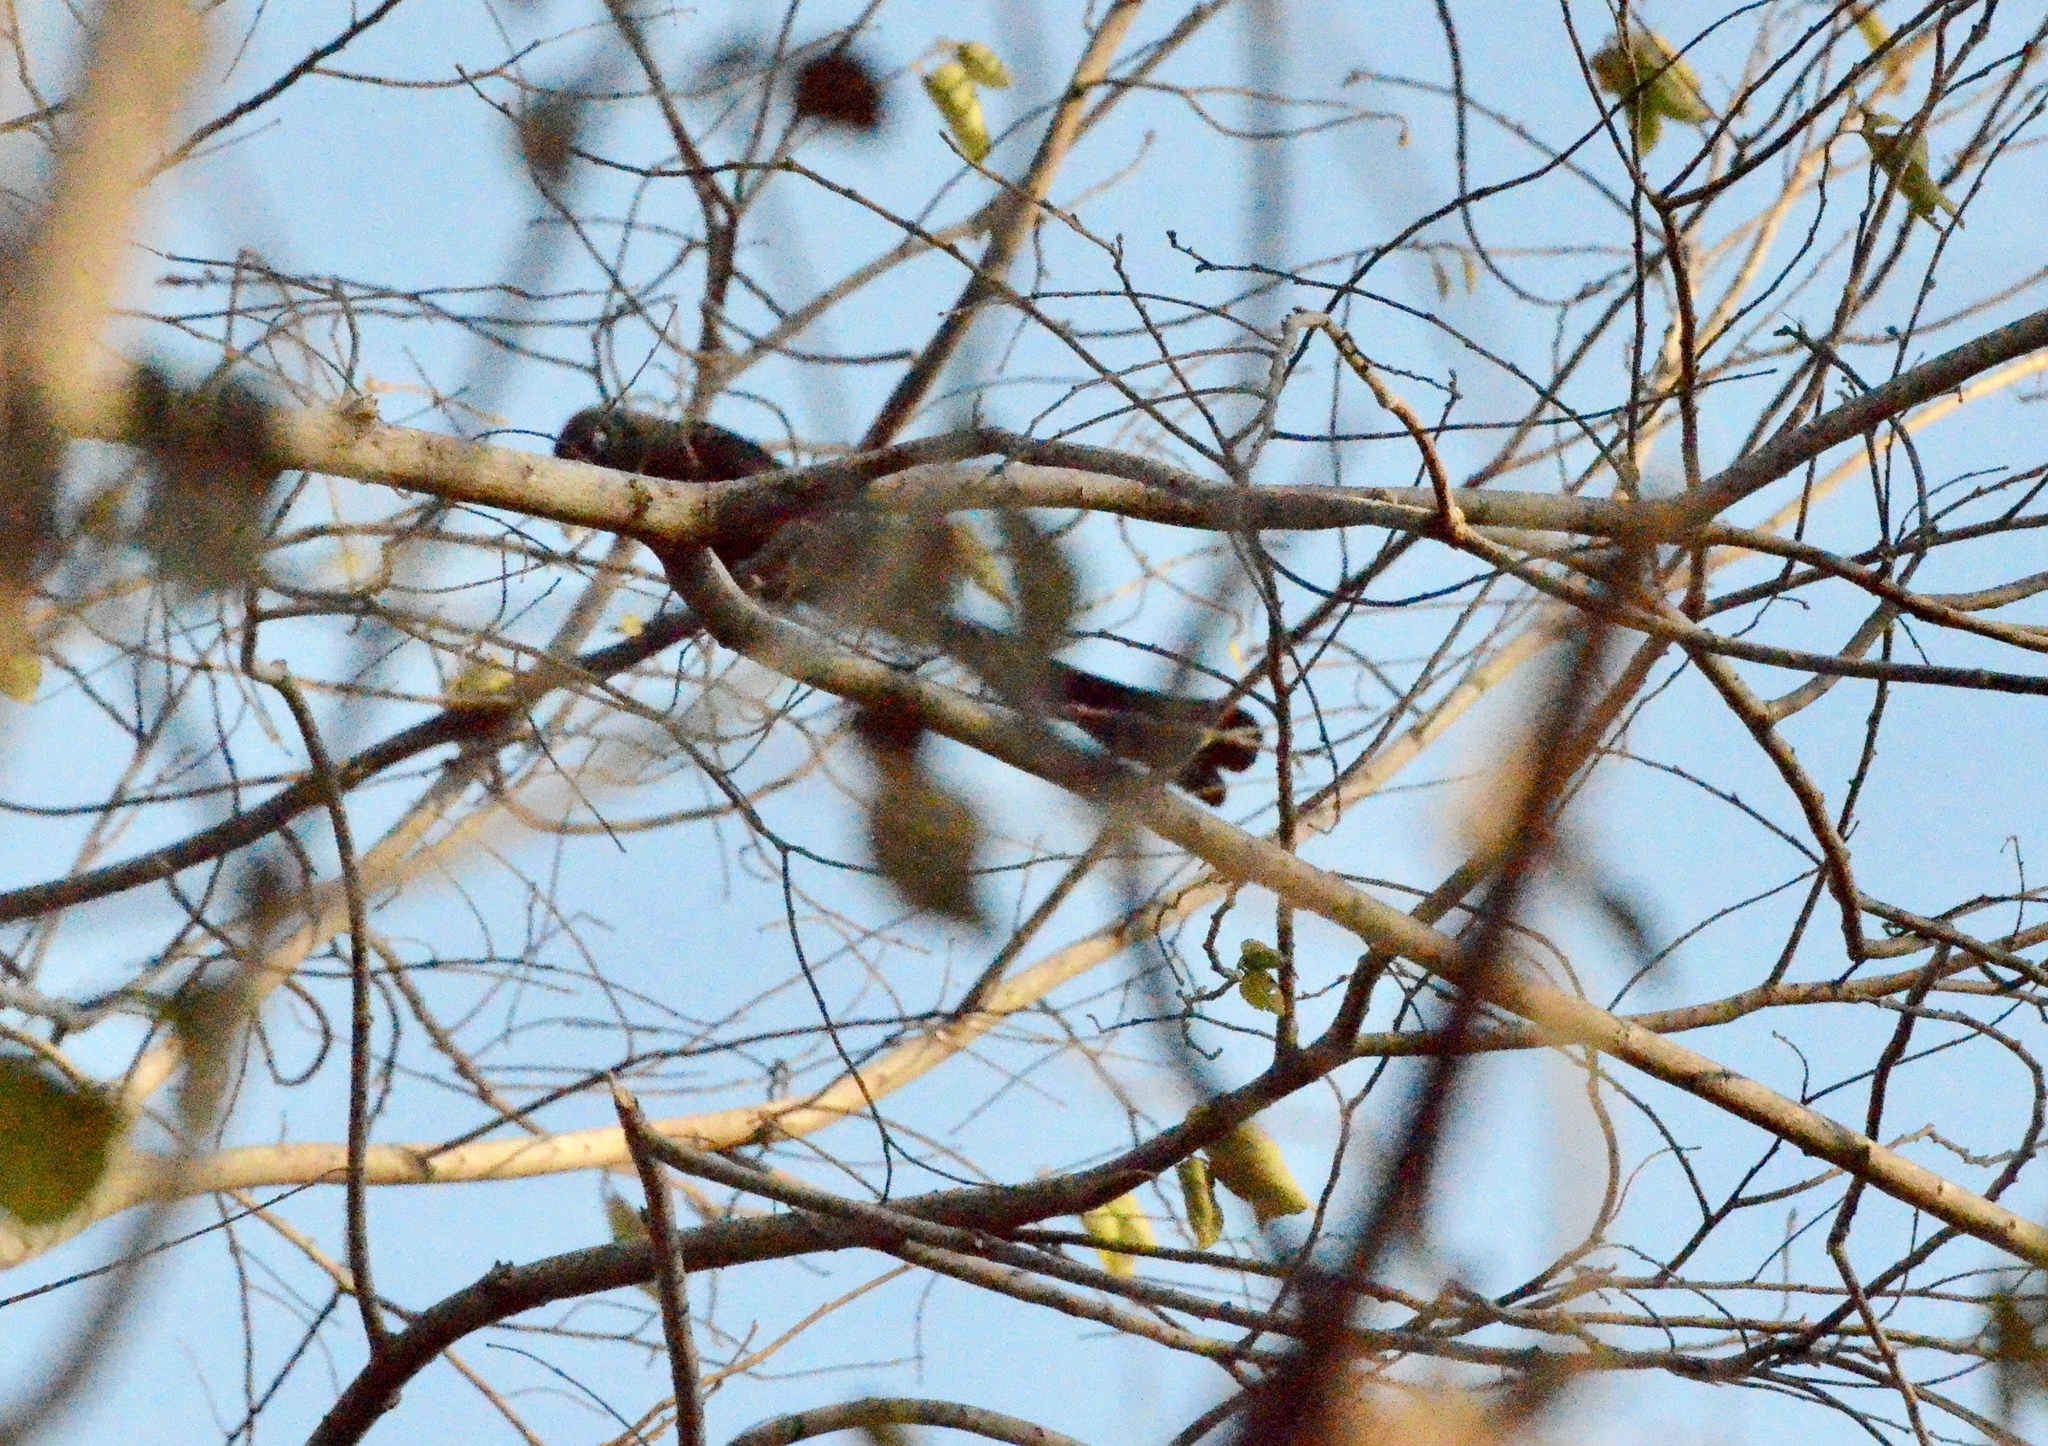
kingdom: Animalia
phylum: Chordata
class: Aves
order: Passeriformes
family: Corvidae
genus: Crypsirina
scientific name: Crypsirina temia
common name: Racket-tailed treepie
